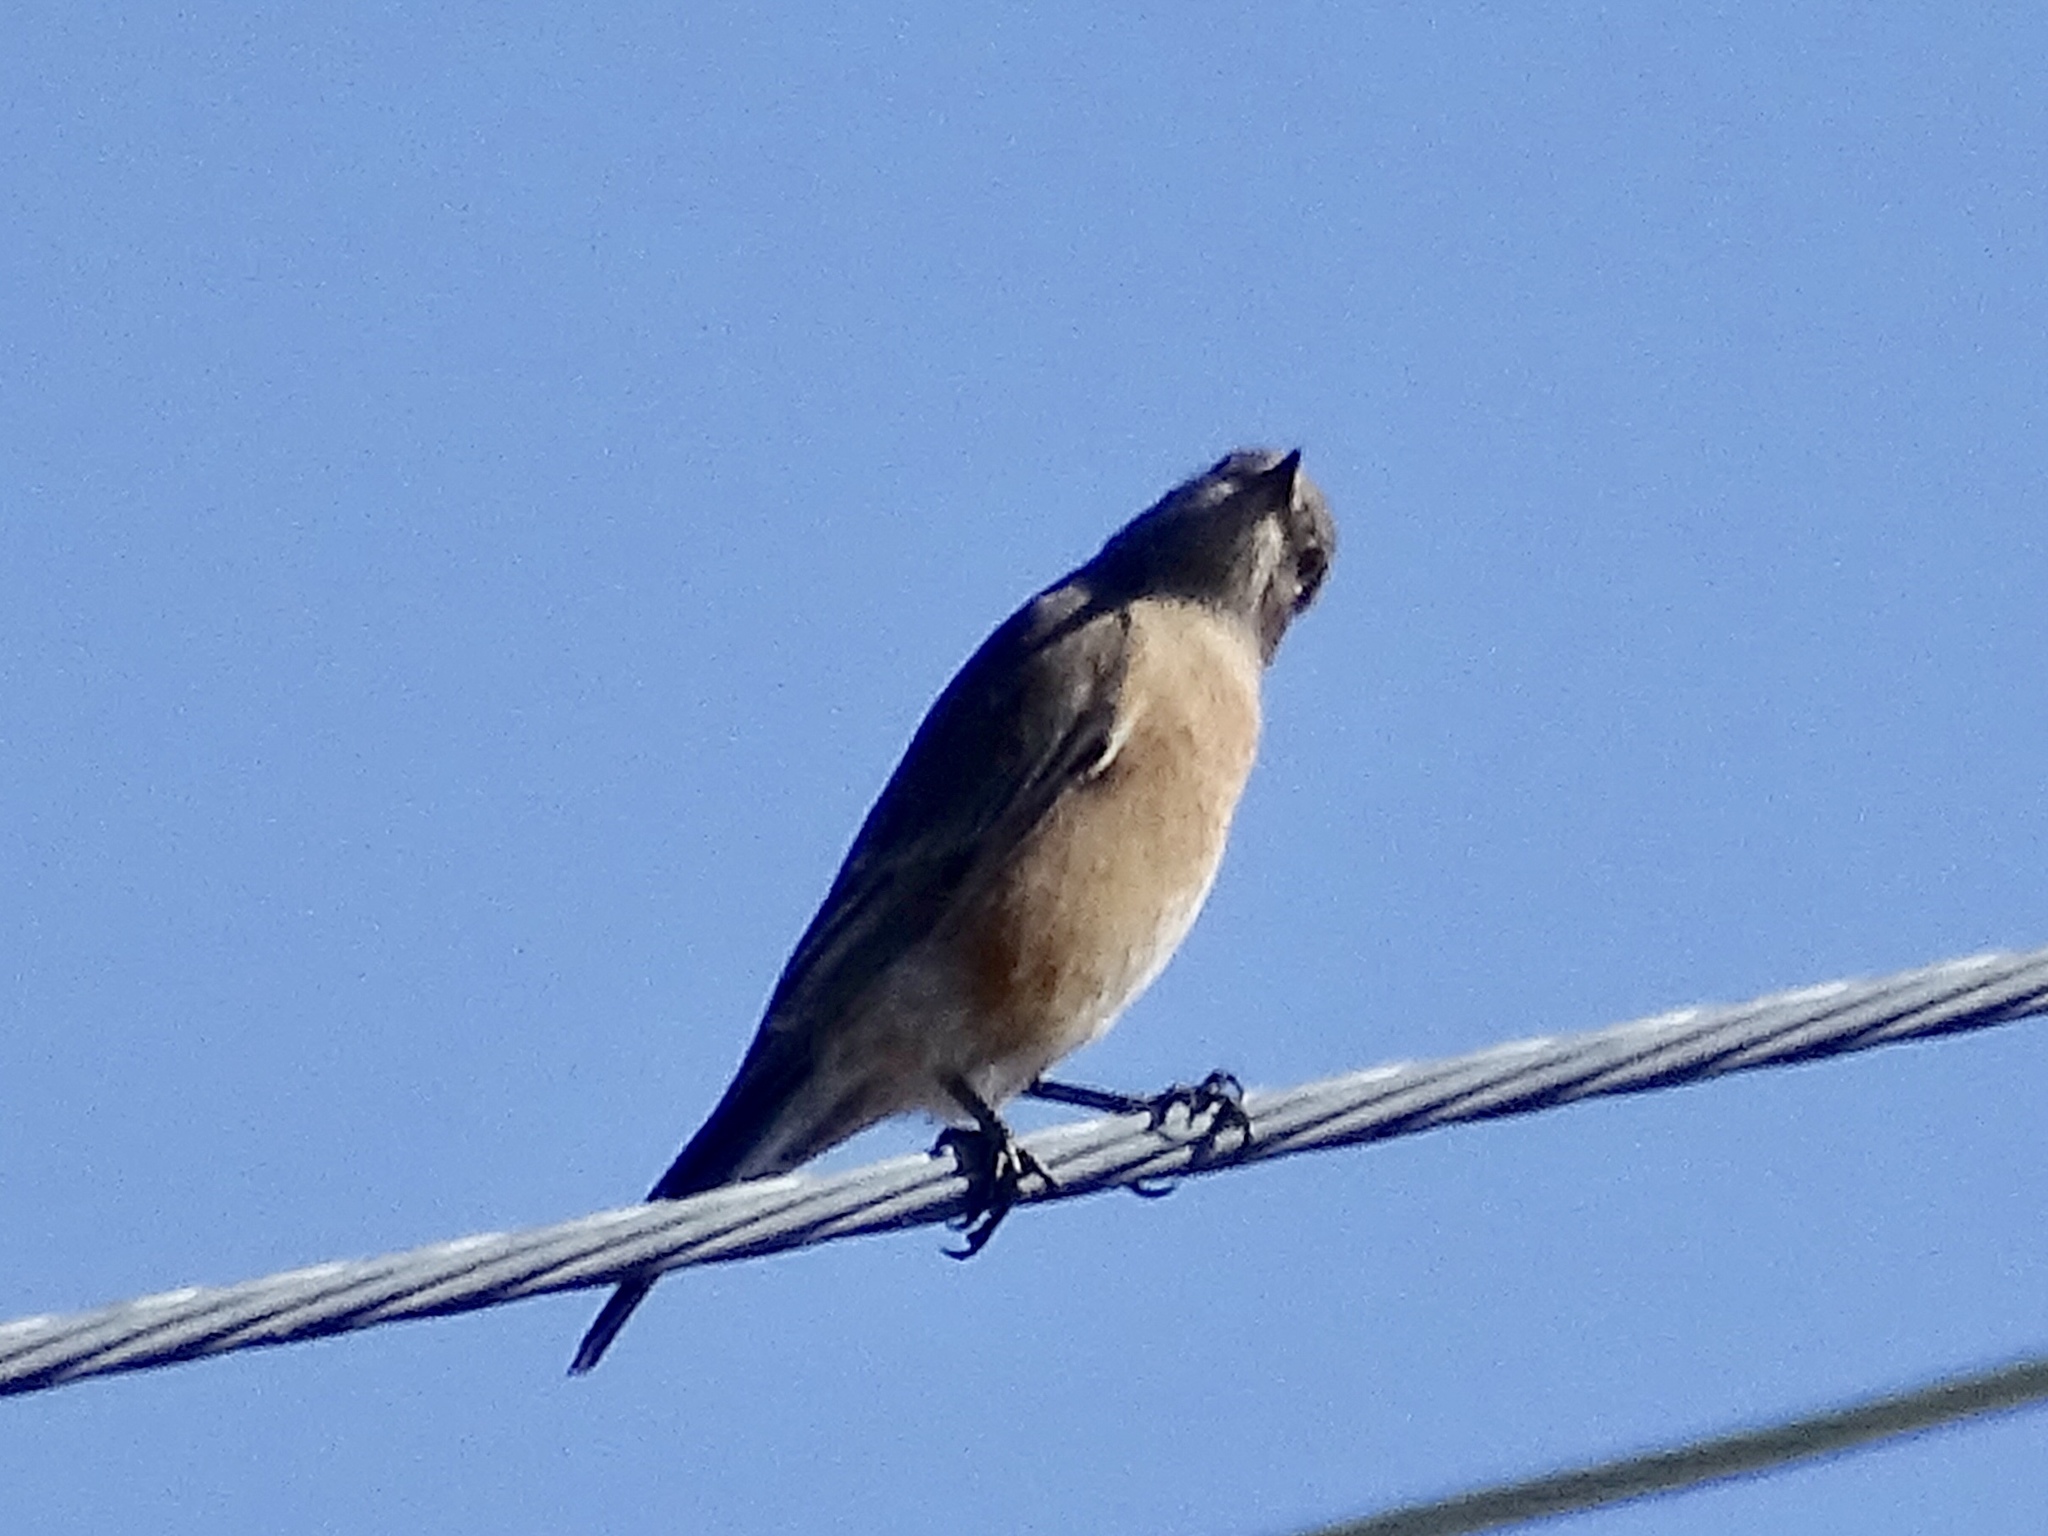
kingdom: Animalia
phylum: Chordata
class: Aves
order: Passeriformes
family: Turdidae
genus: Sialia
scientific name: Sialia mexicana
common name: Western bluebird
